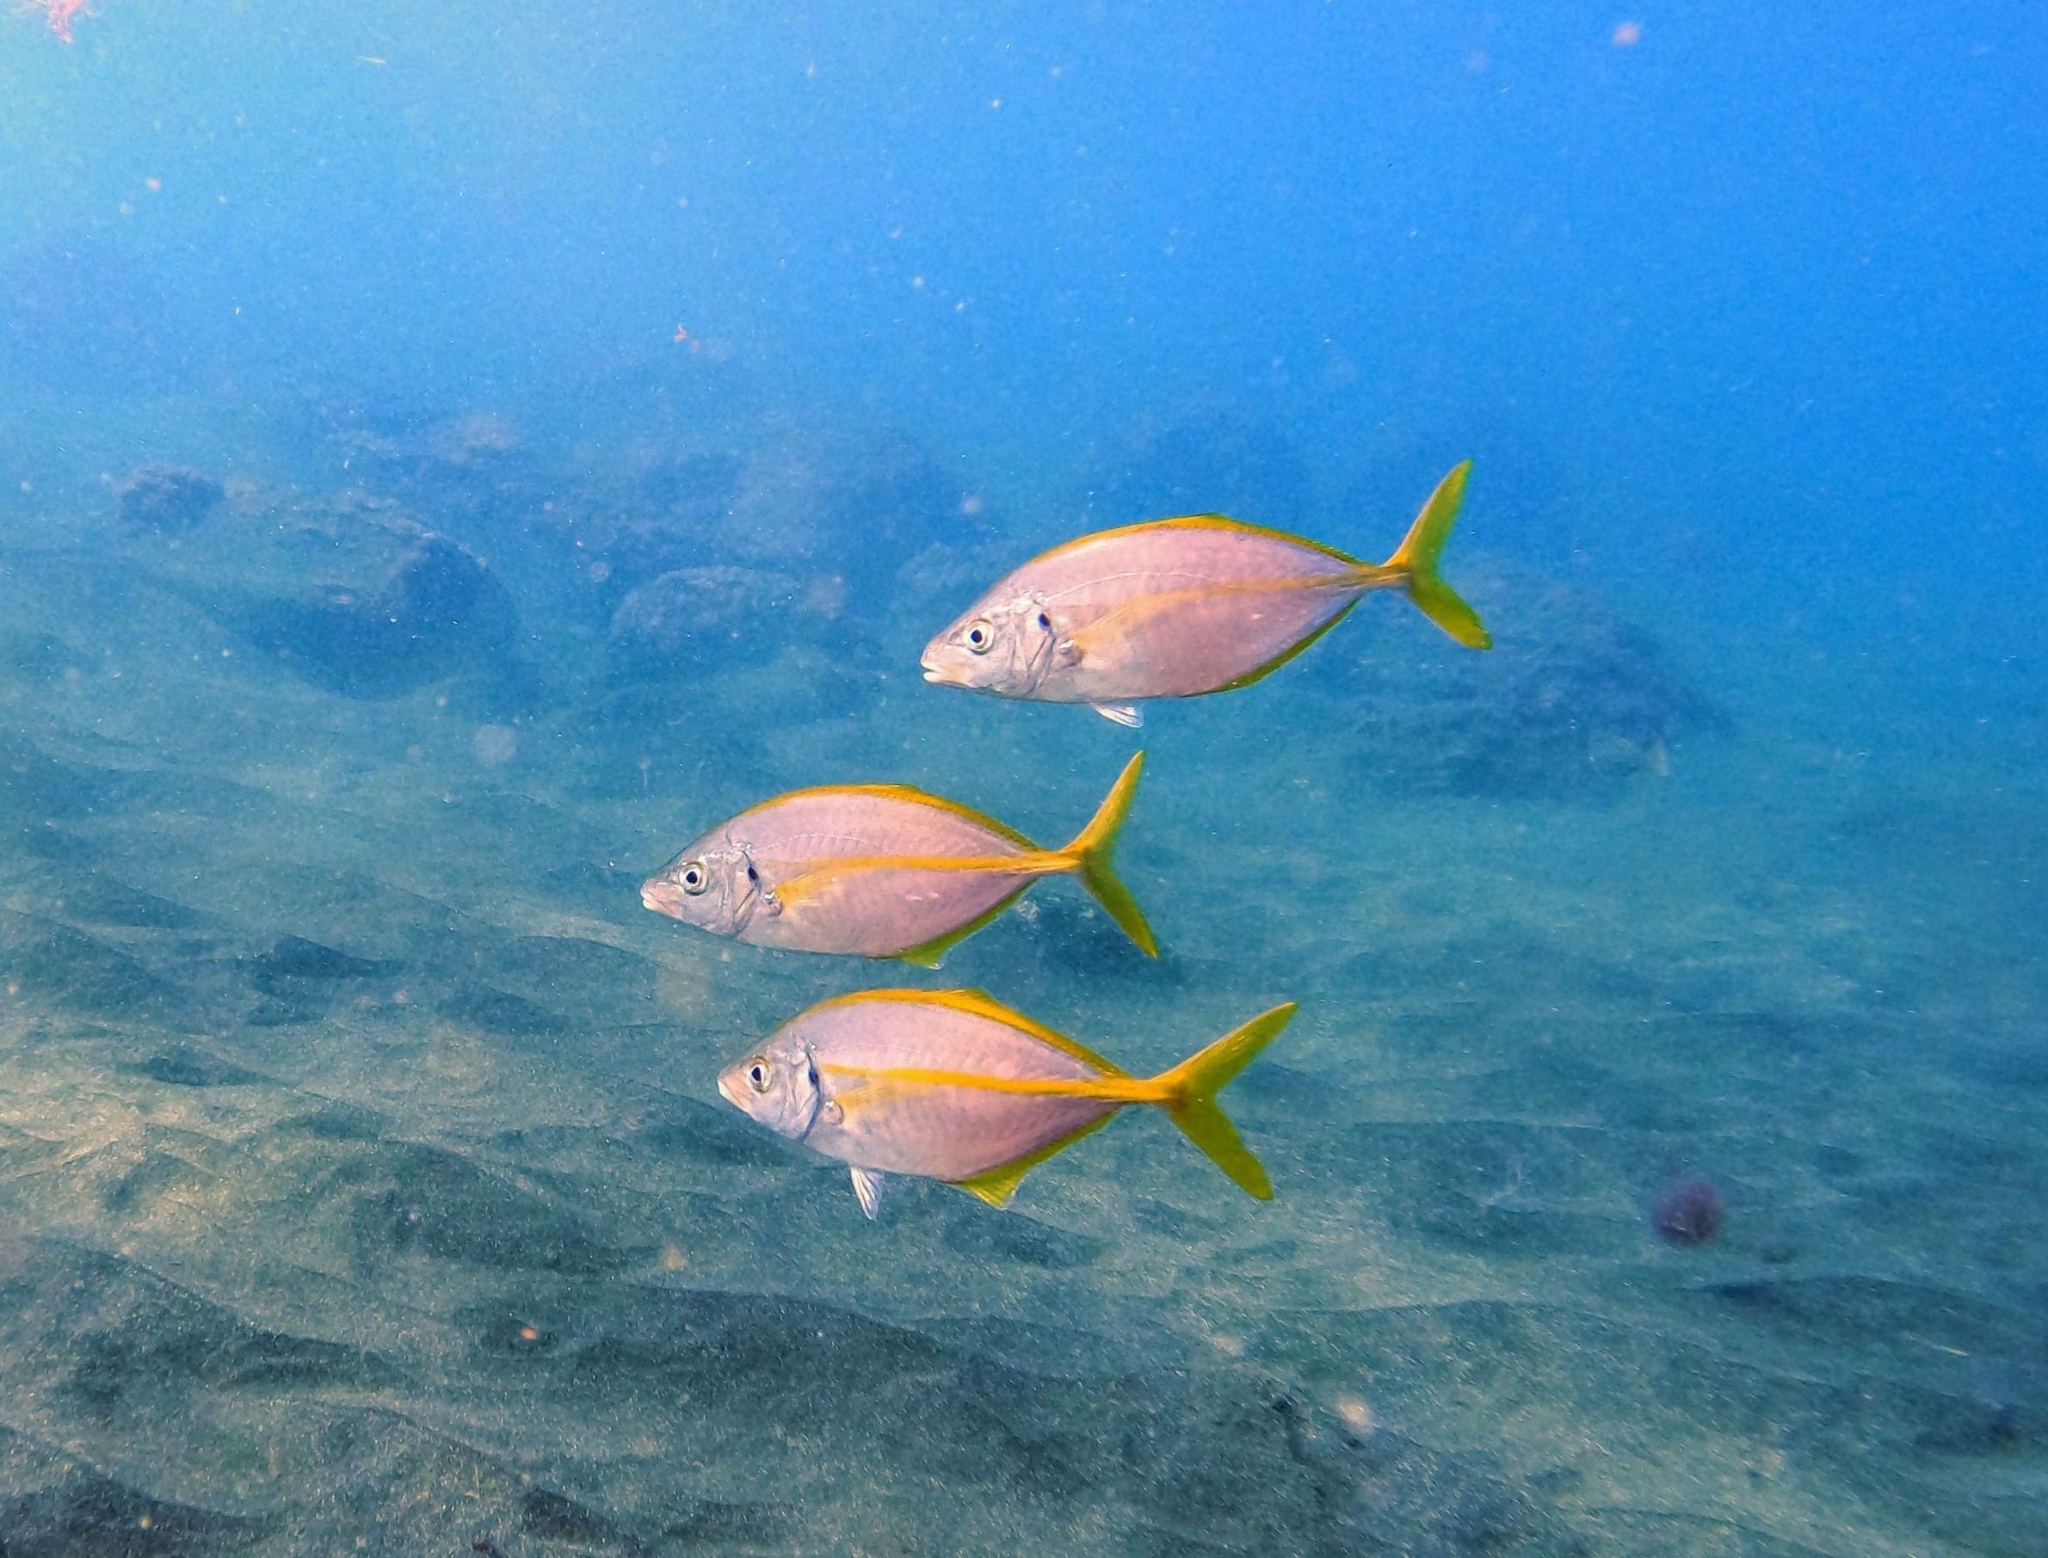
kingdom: Animalia
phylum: Chordata
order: Perciformes
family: Carangidae
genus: Pseudocaranx
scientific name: Pseudocaranx dentex
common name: White trevally
